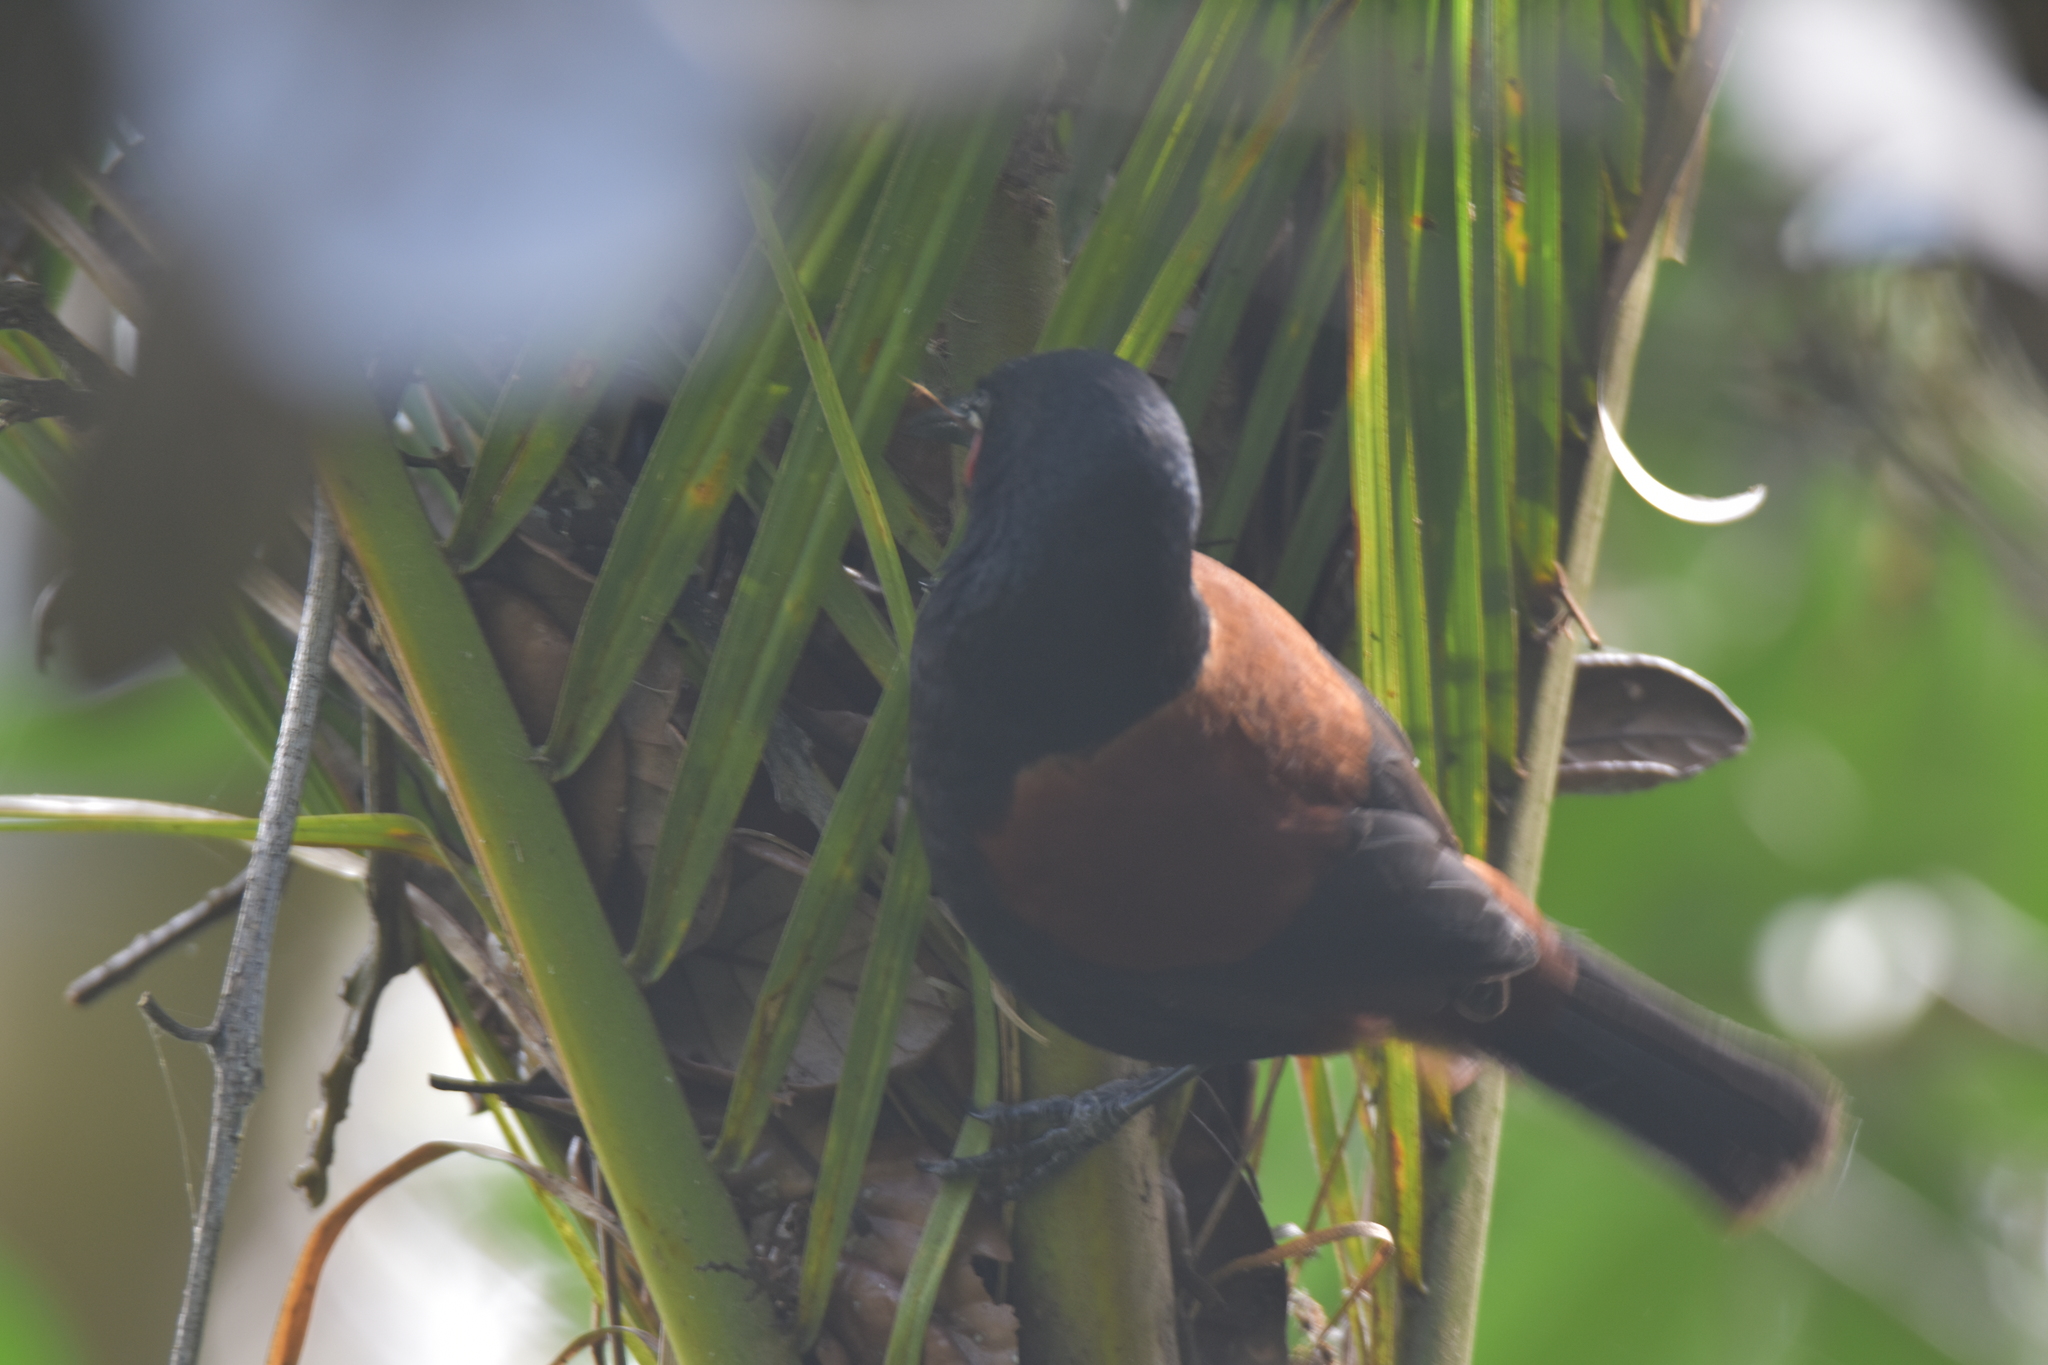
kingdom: Animalia
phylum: Chordata
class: Aves
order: Passeriformes
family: Callaeatidae
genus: Philesturnus
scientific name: Philesturnus carunculatus
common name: South island saddleback
